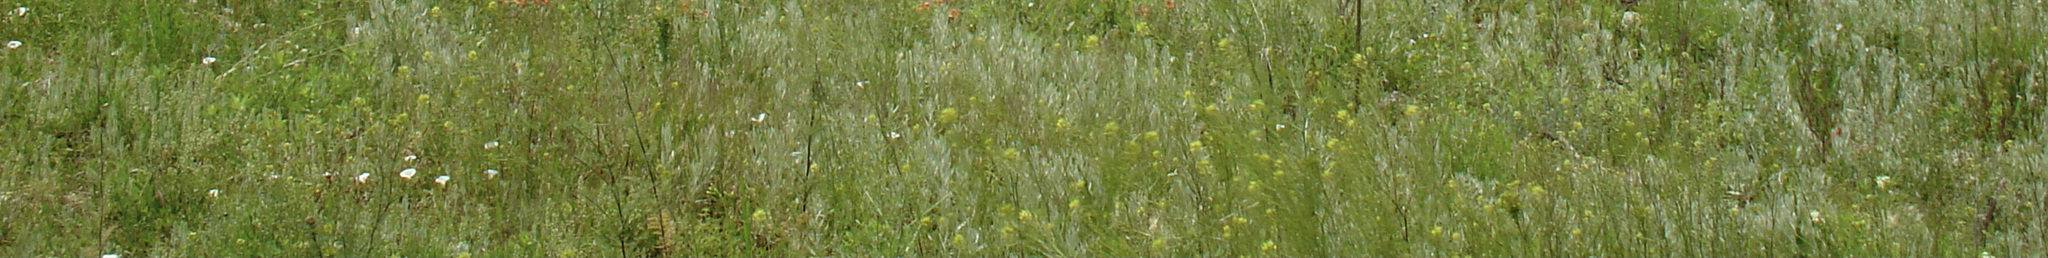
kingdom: Plantae
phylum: Tracheophyta
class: Magnoliopsida
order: Solanales
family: Convolvulaceae
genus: Convolvulus
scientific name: Convolvulus arvensis
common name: Field bindweed
